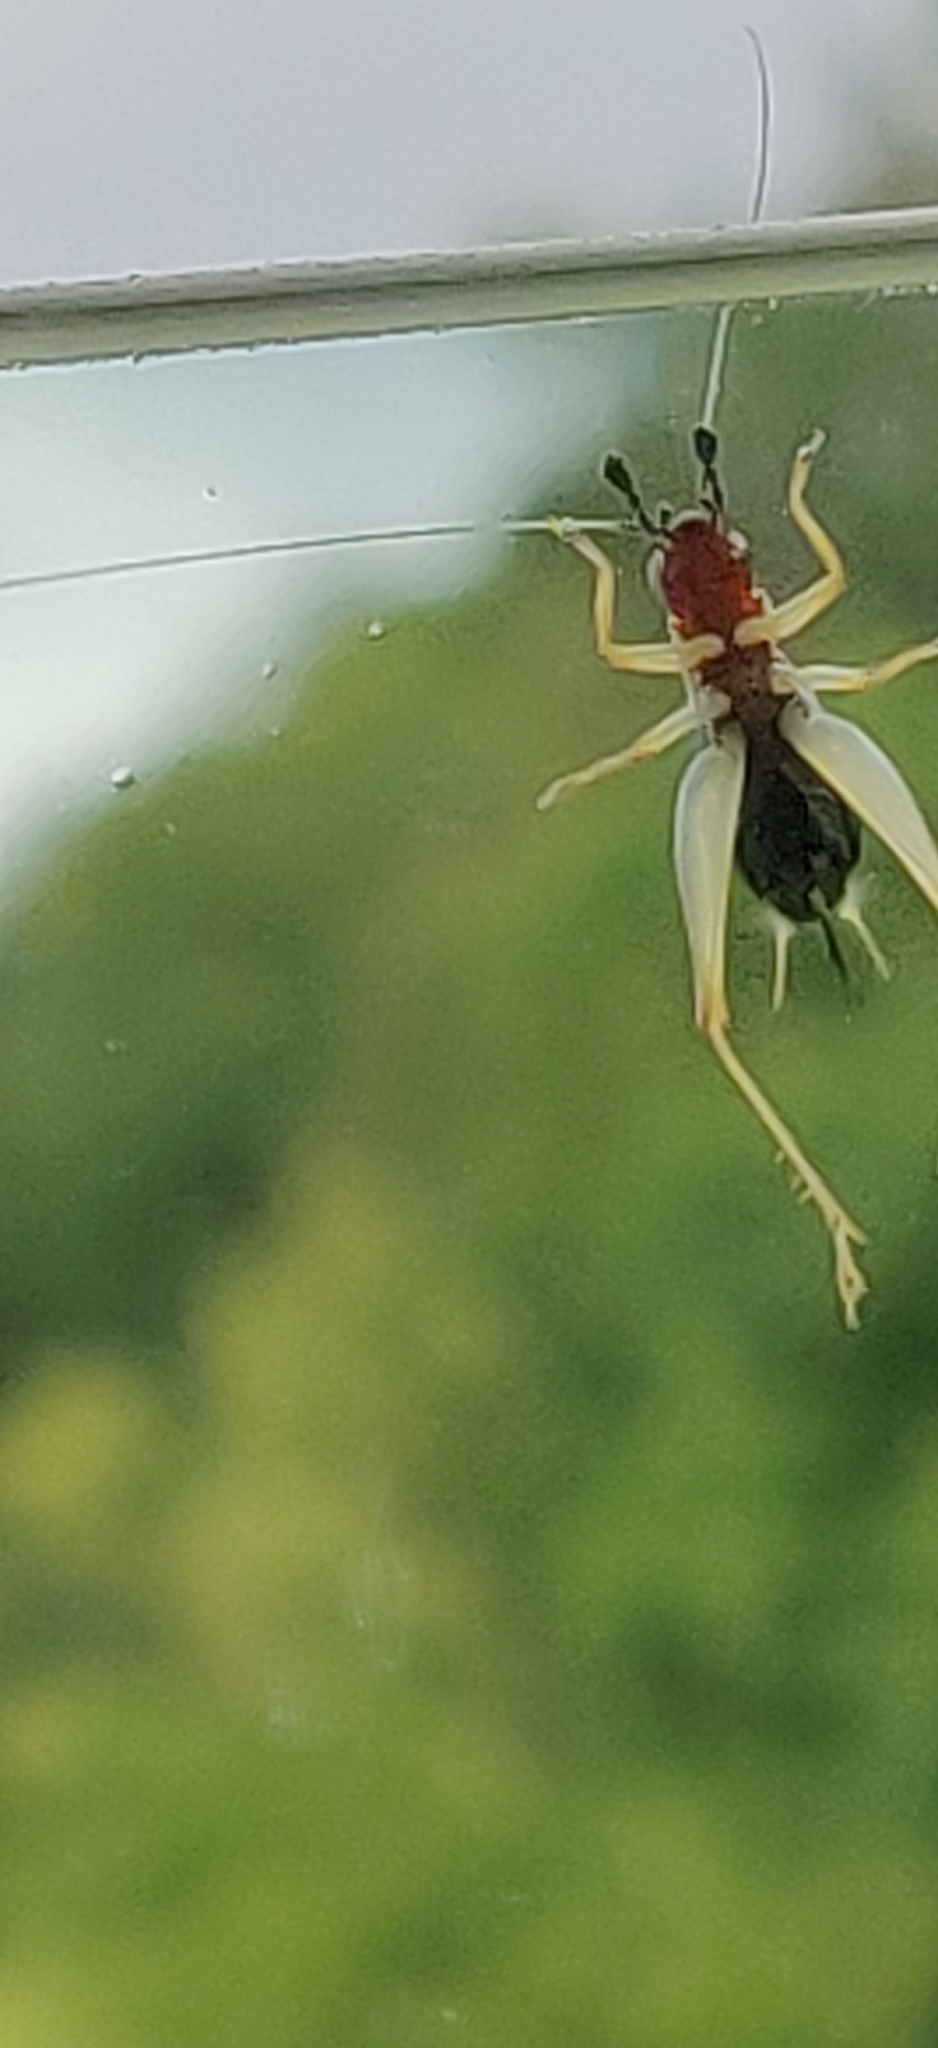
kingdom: Animalia
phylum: Arthropoda
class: Insecta
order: Orthoptera
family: Trigonidiidae
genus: Phyllopalpus
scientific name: Phyllopalpus pulchellus
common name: Handsome trig
